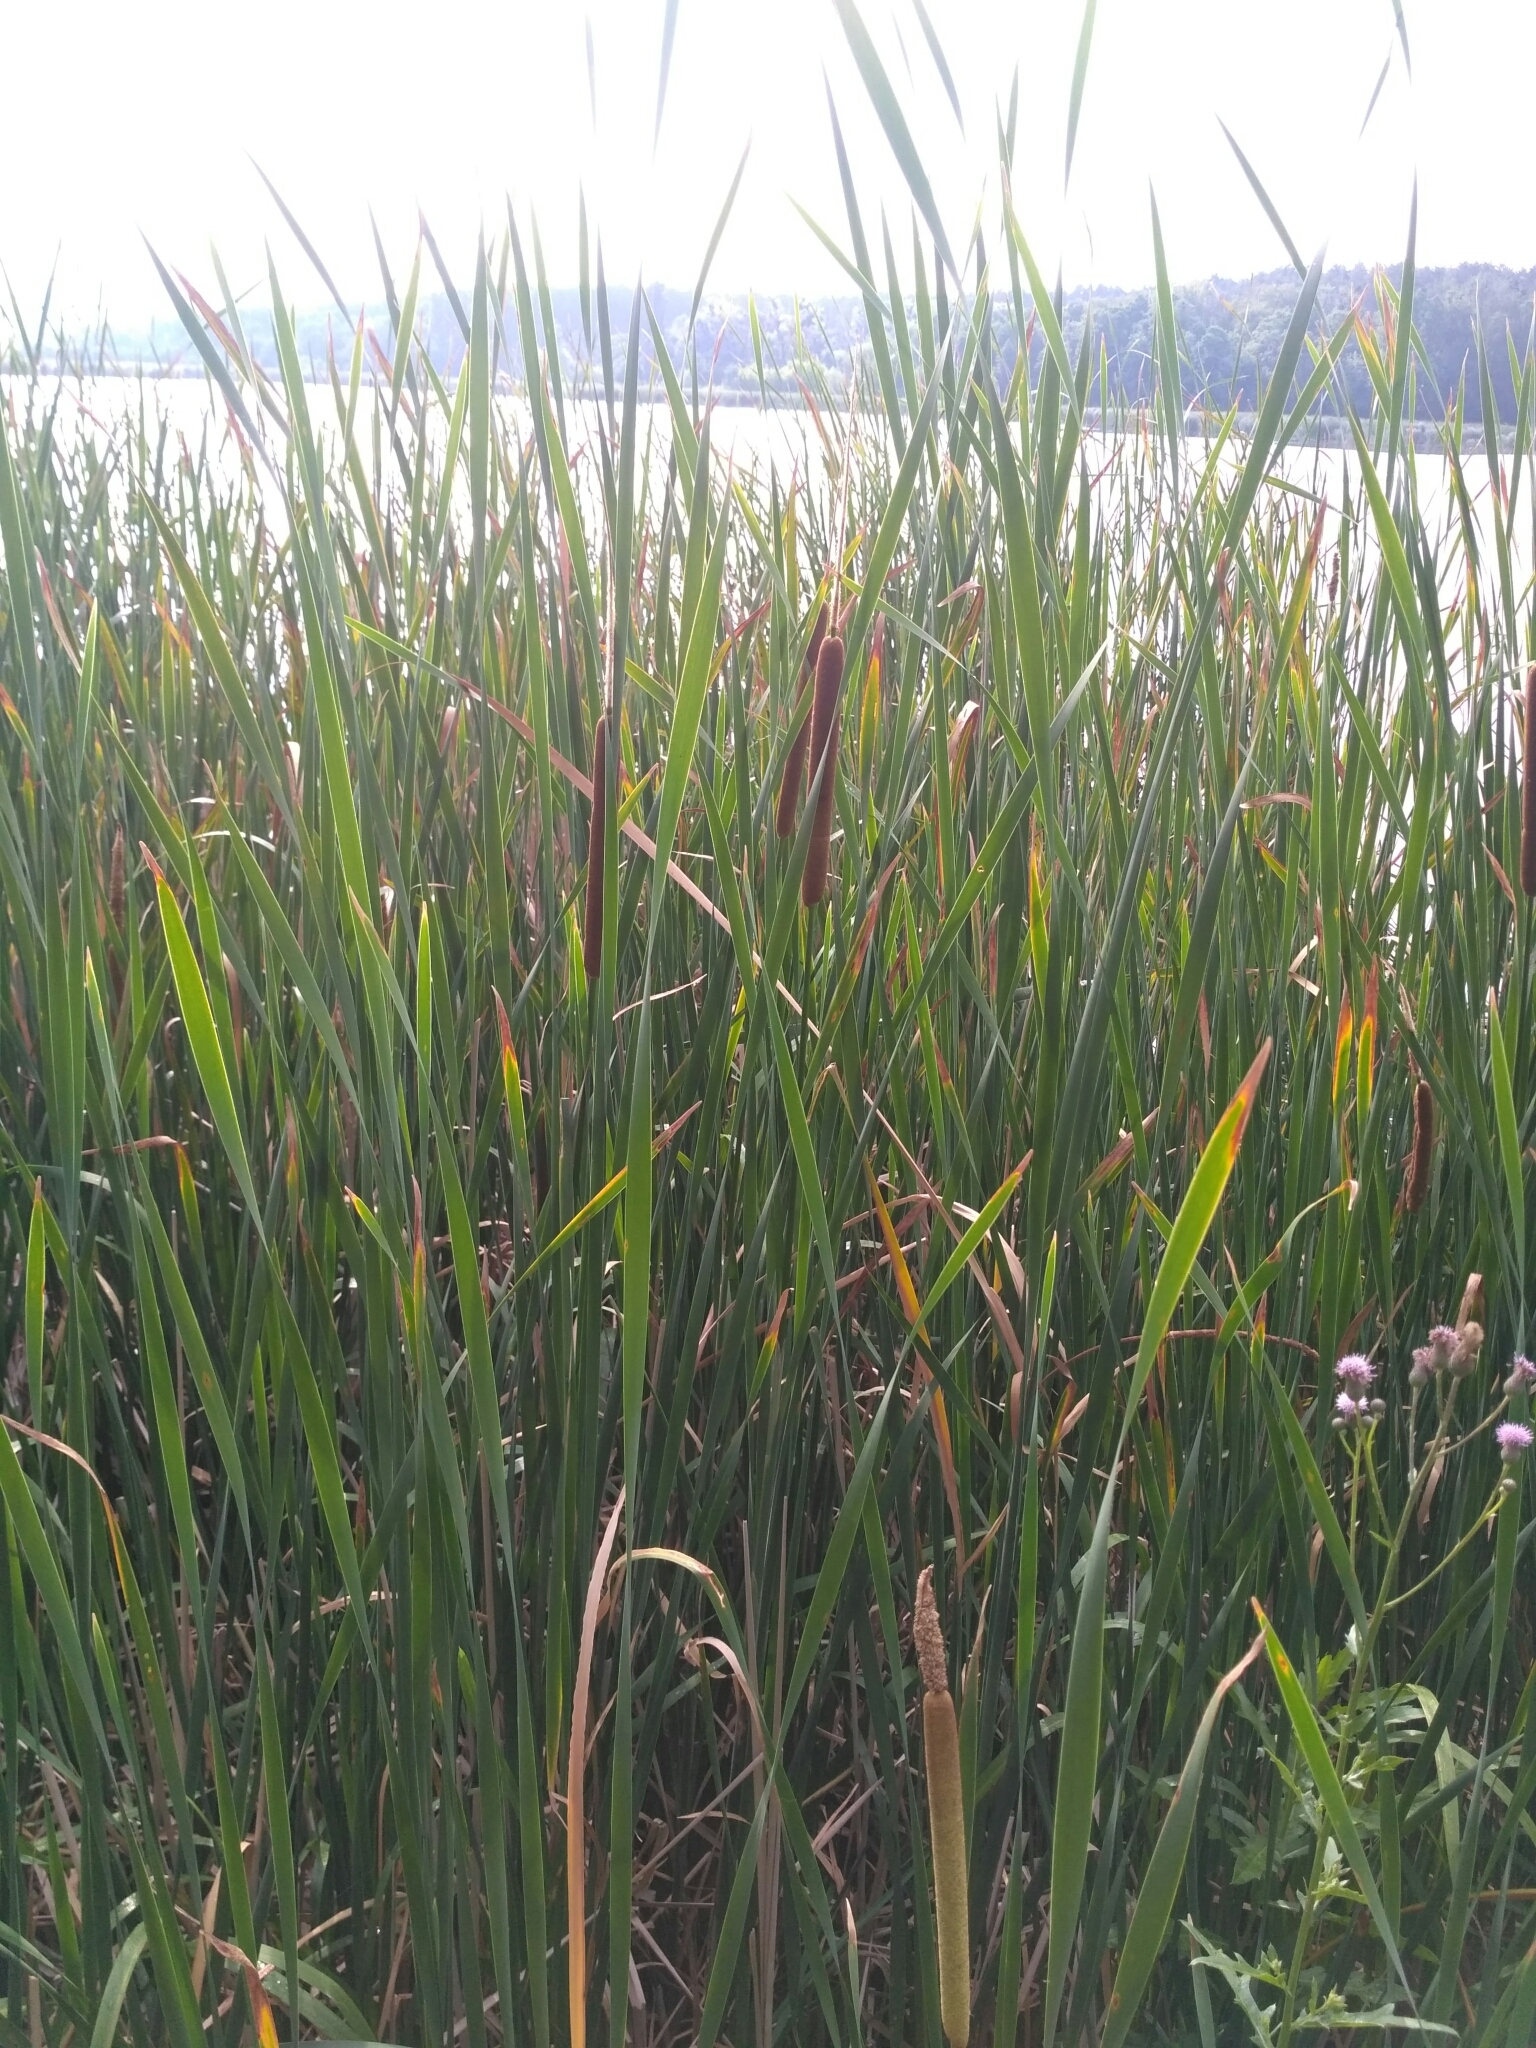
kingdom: Plantae
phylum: Tracheophyta
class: Liliopsida
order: Poales
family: Typhaceae
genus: Typha
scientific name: Typha angustifolia
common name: Lesser bulrush
